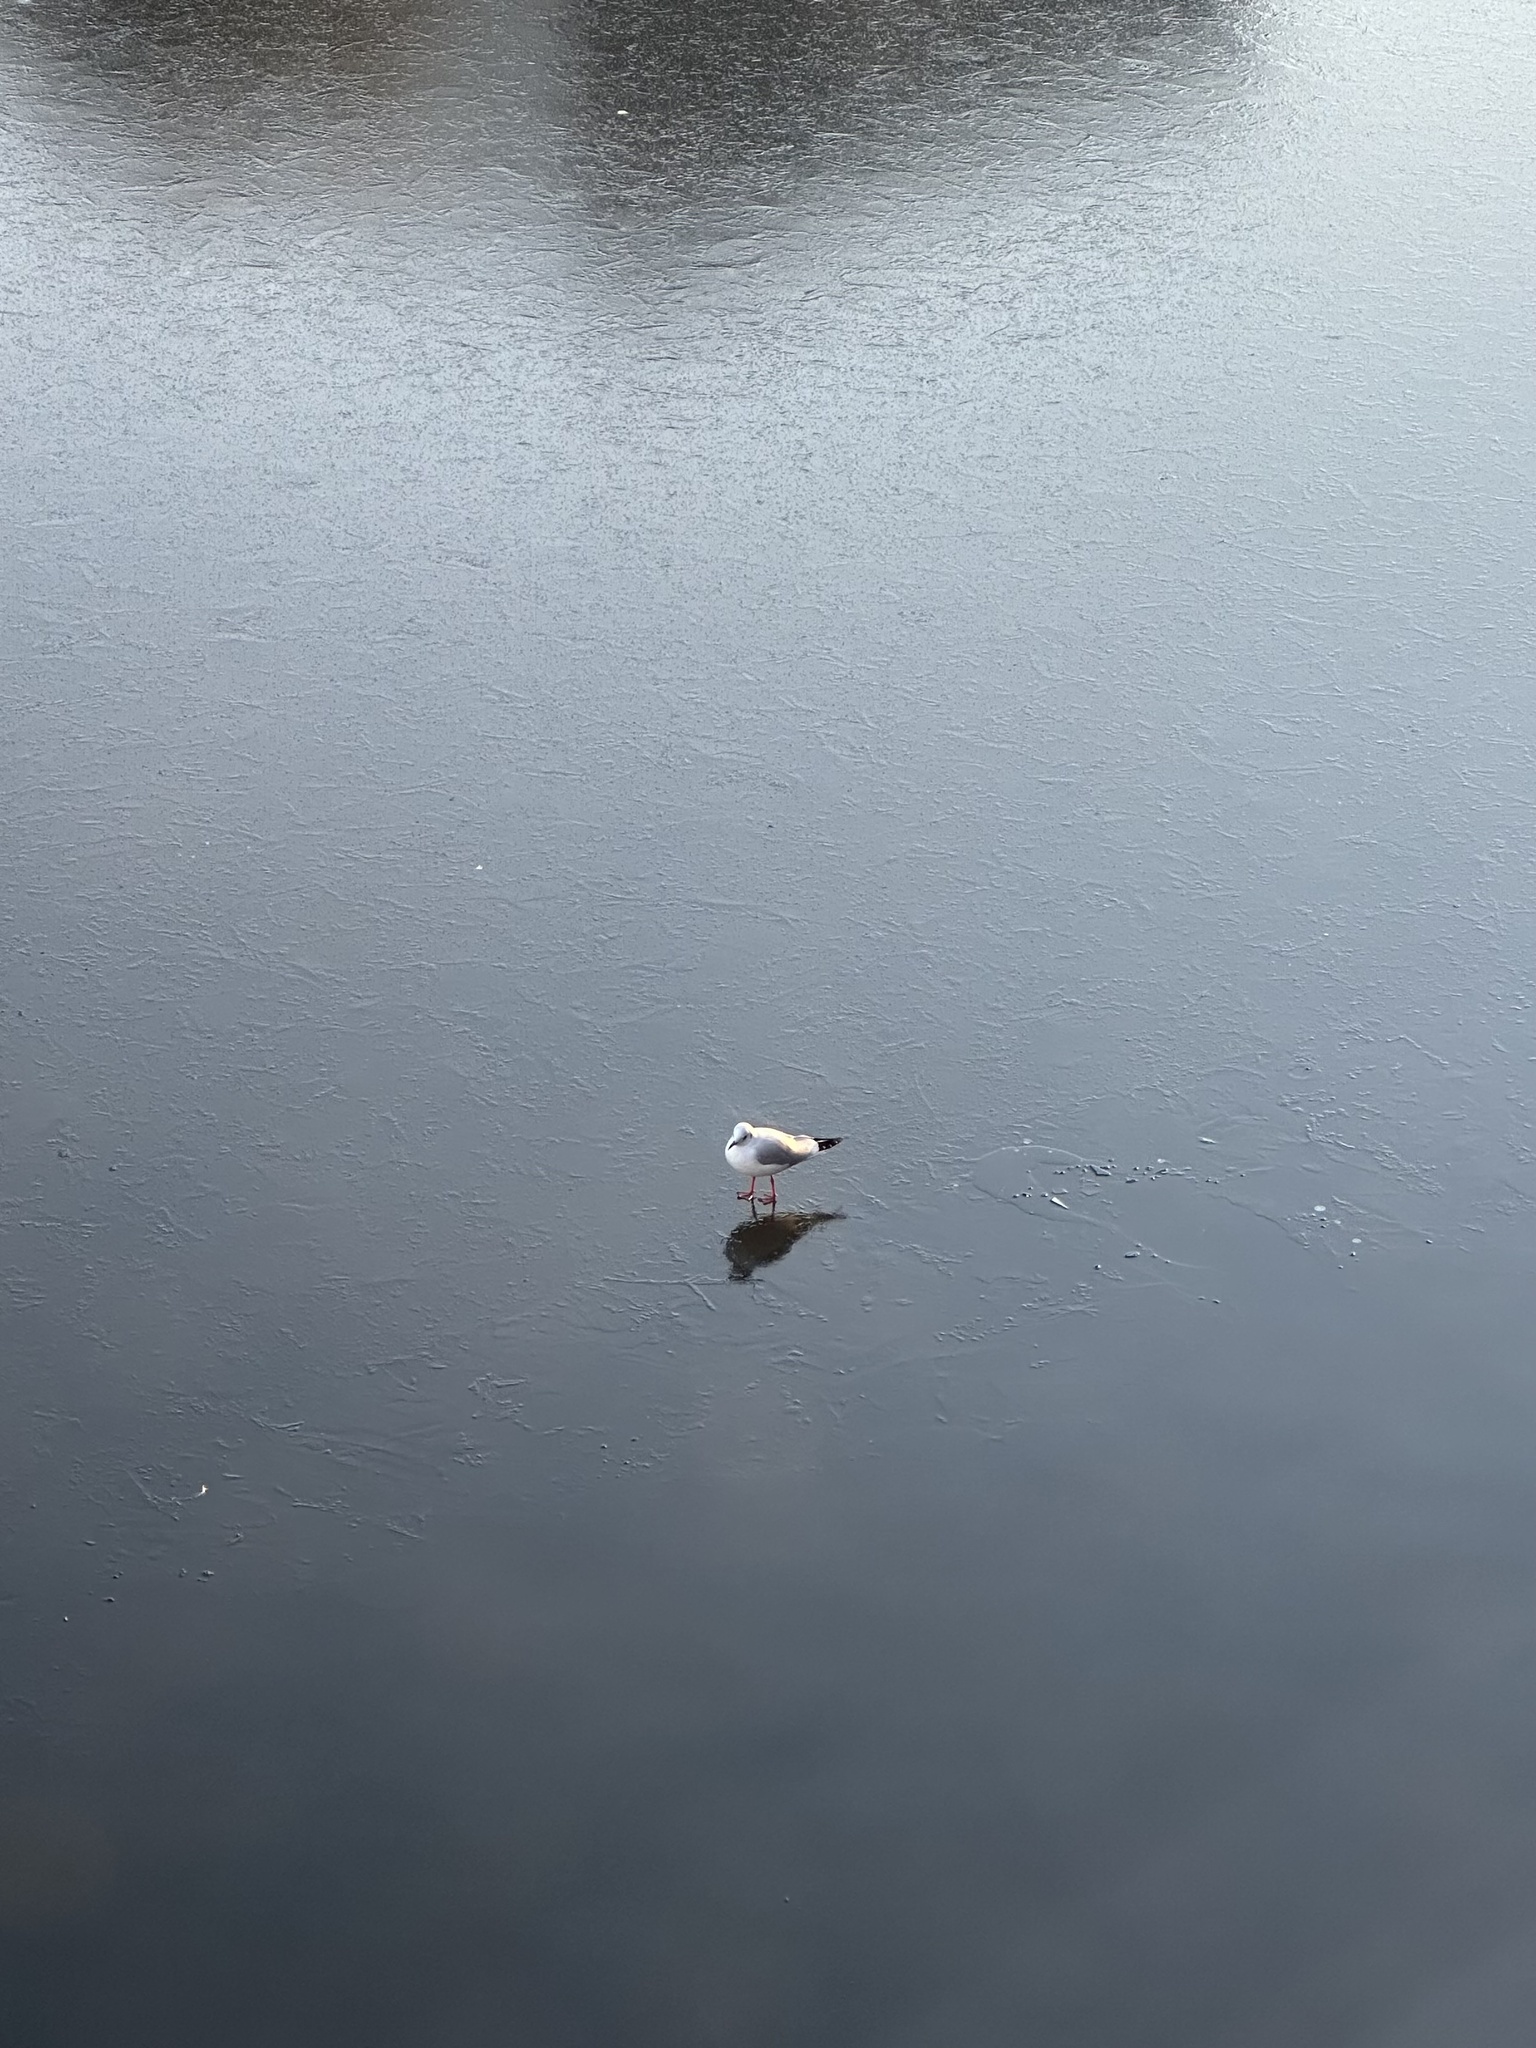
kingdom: Animalia
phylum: Chordata
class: Aves
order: Charadriiformes
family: Laridae
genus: Chroicocephalus
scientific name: Chroicocephalus ridibundus
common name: Black-headed gull
